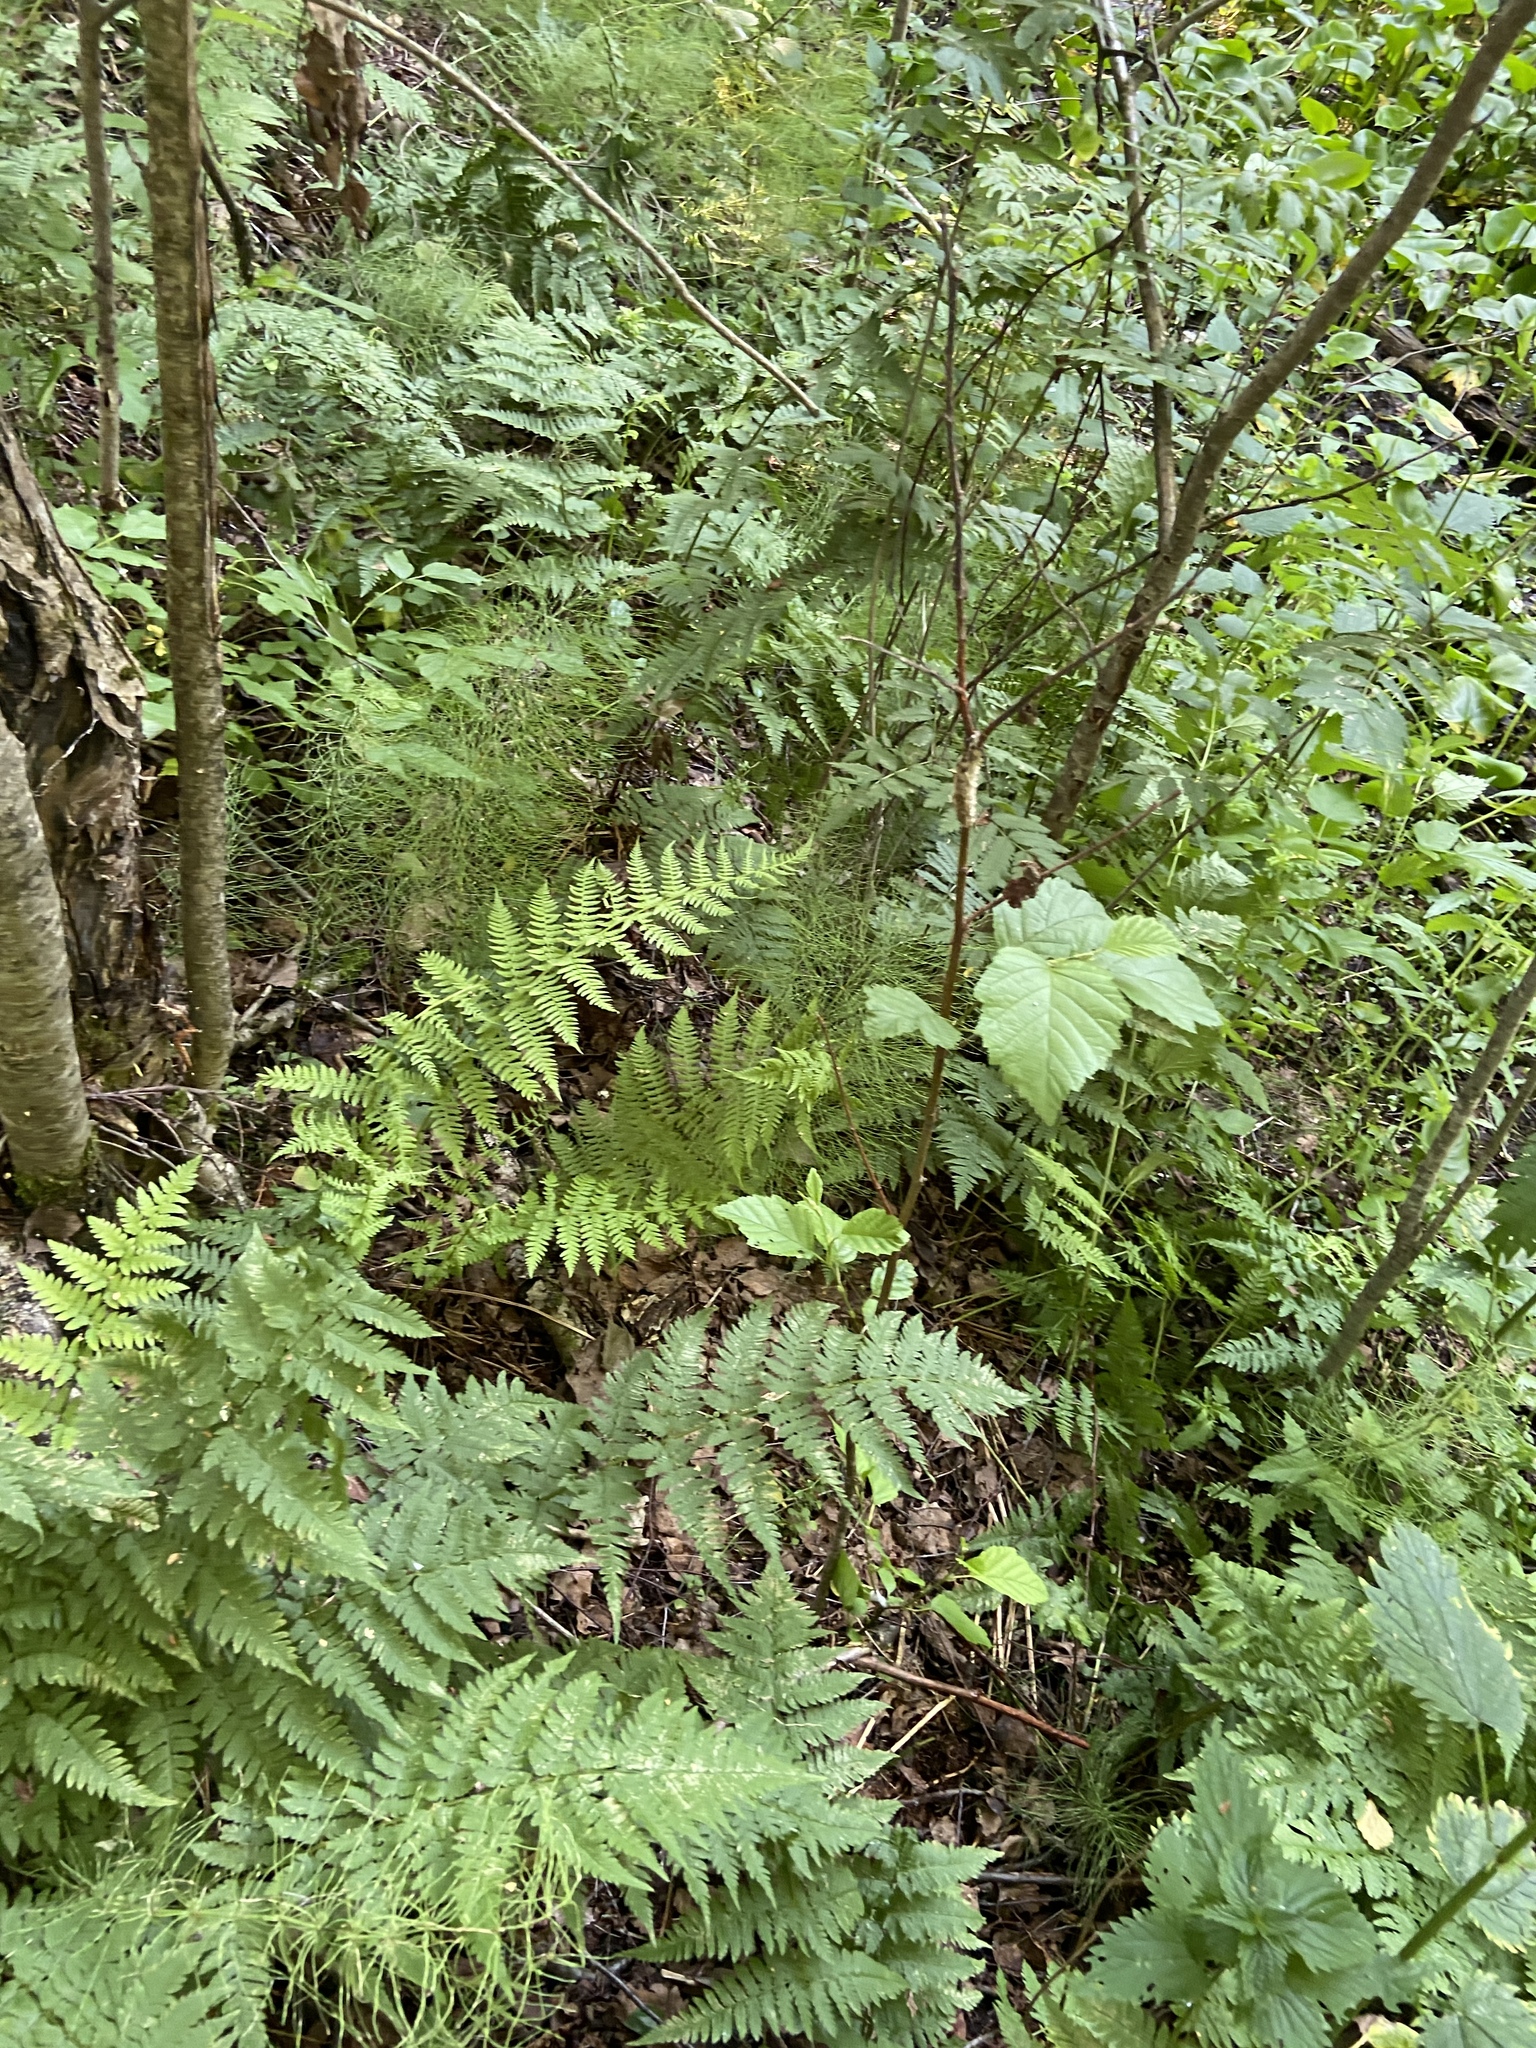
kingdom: Plantae
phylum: Tracheophyta
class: Polypodiopsida
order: Polypodiales
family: Dryopteridaceae
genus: Dryopteris
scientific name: Dryopteris carthusiana
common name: Narrow buckler-fern
